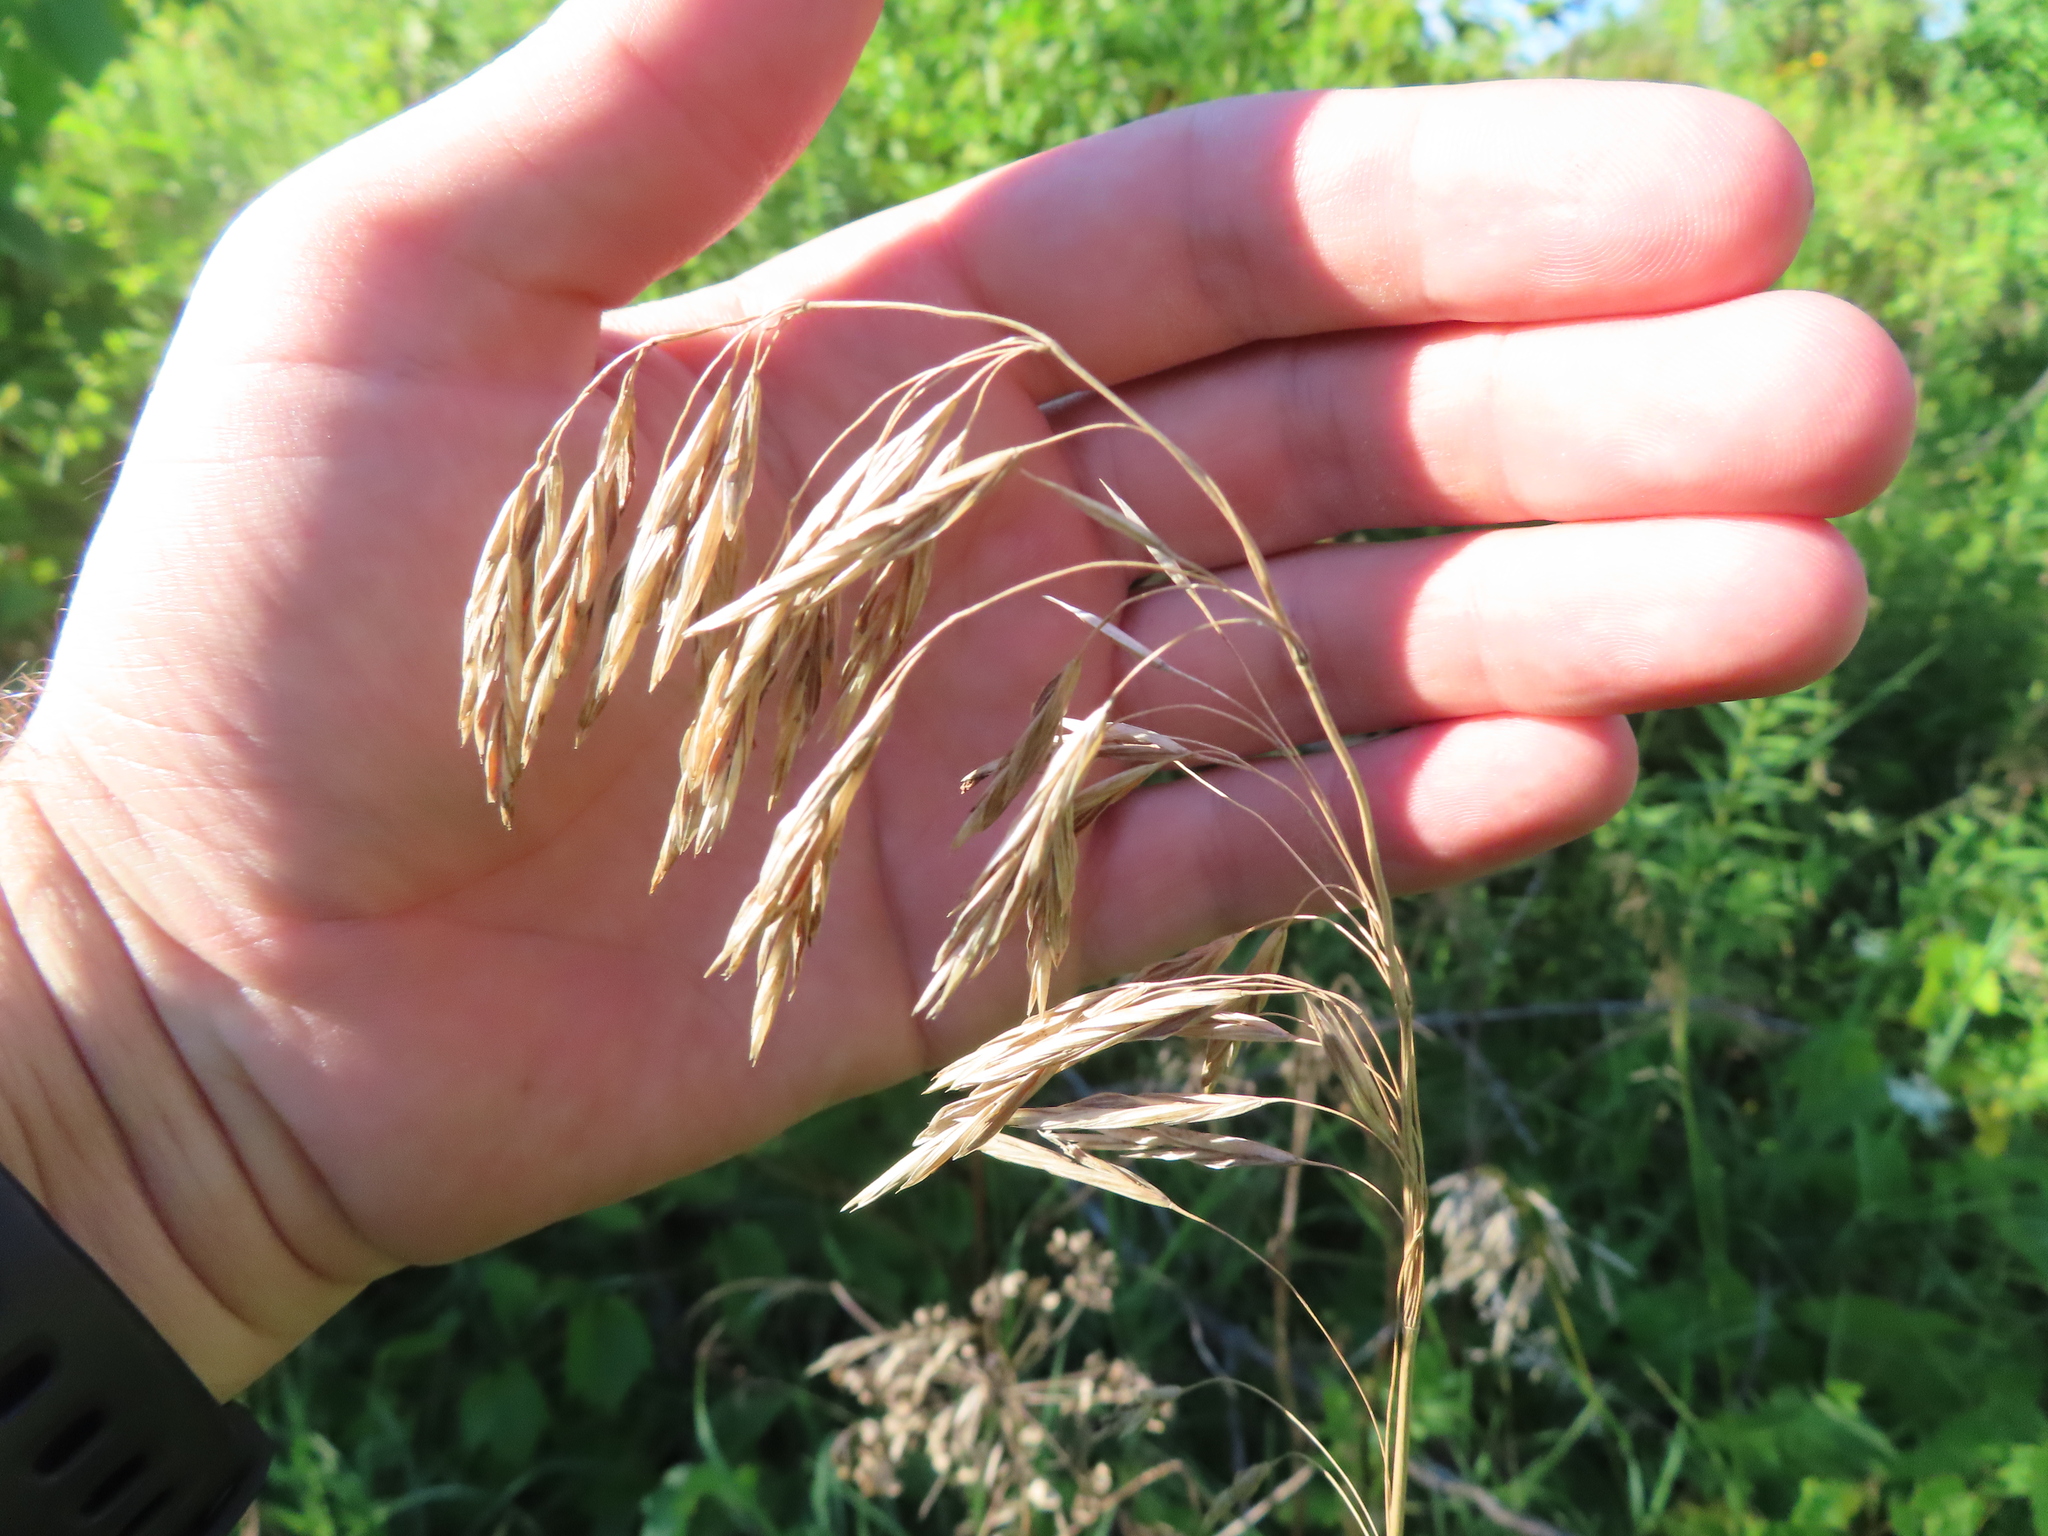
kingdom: Plantae
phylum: Tracheophyta
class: Liliopsida
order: Poales
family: Poaceae
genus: Bromus
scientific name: Bromus inermis
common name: Smooth brome
